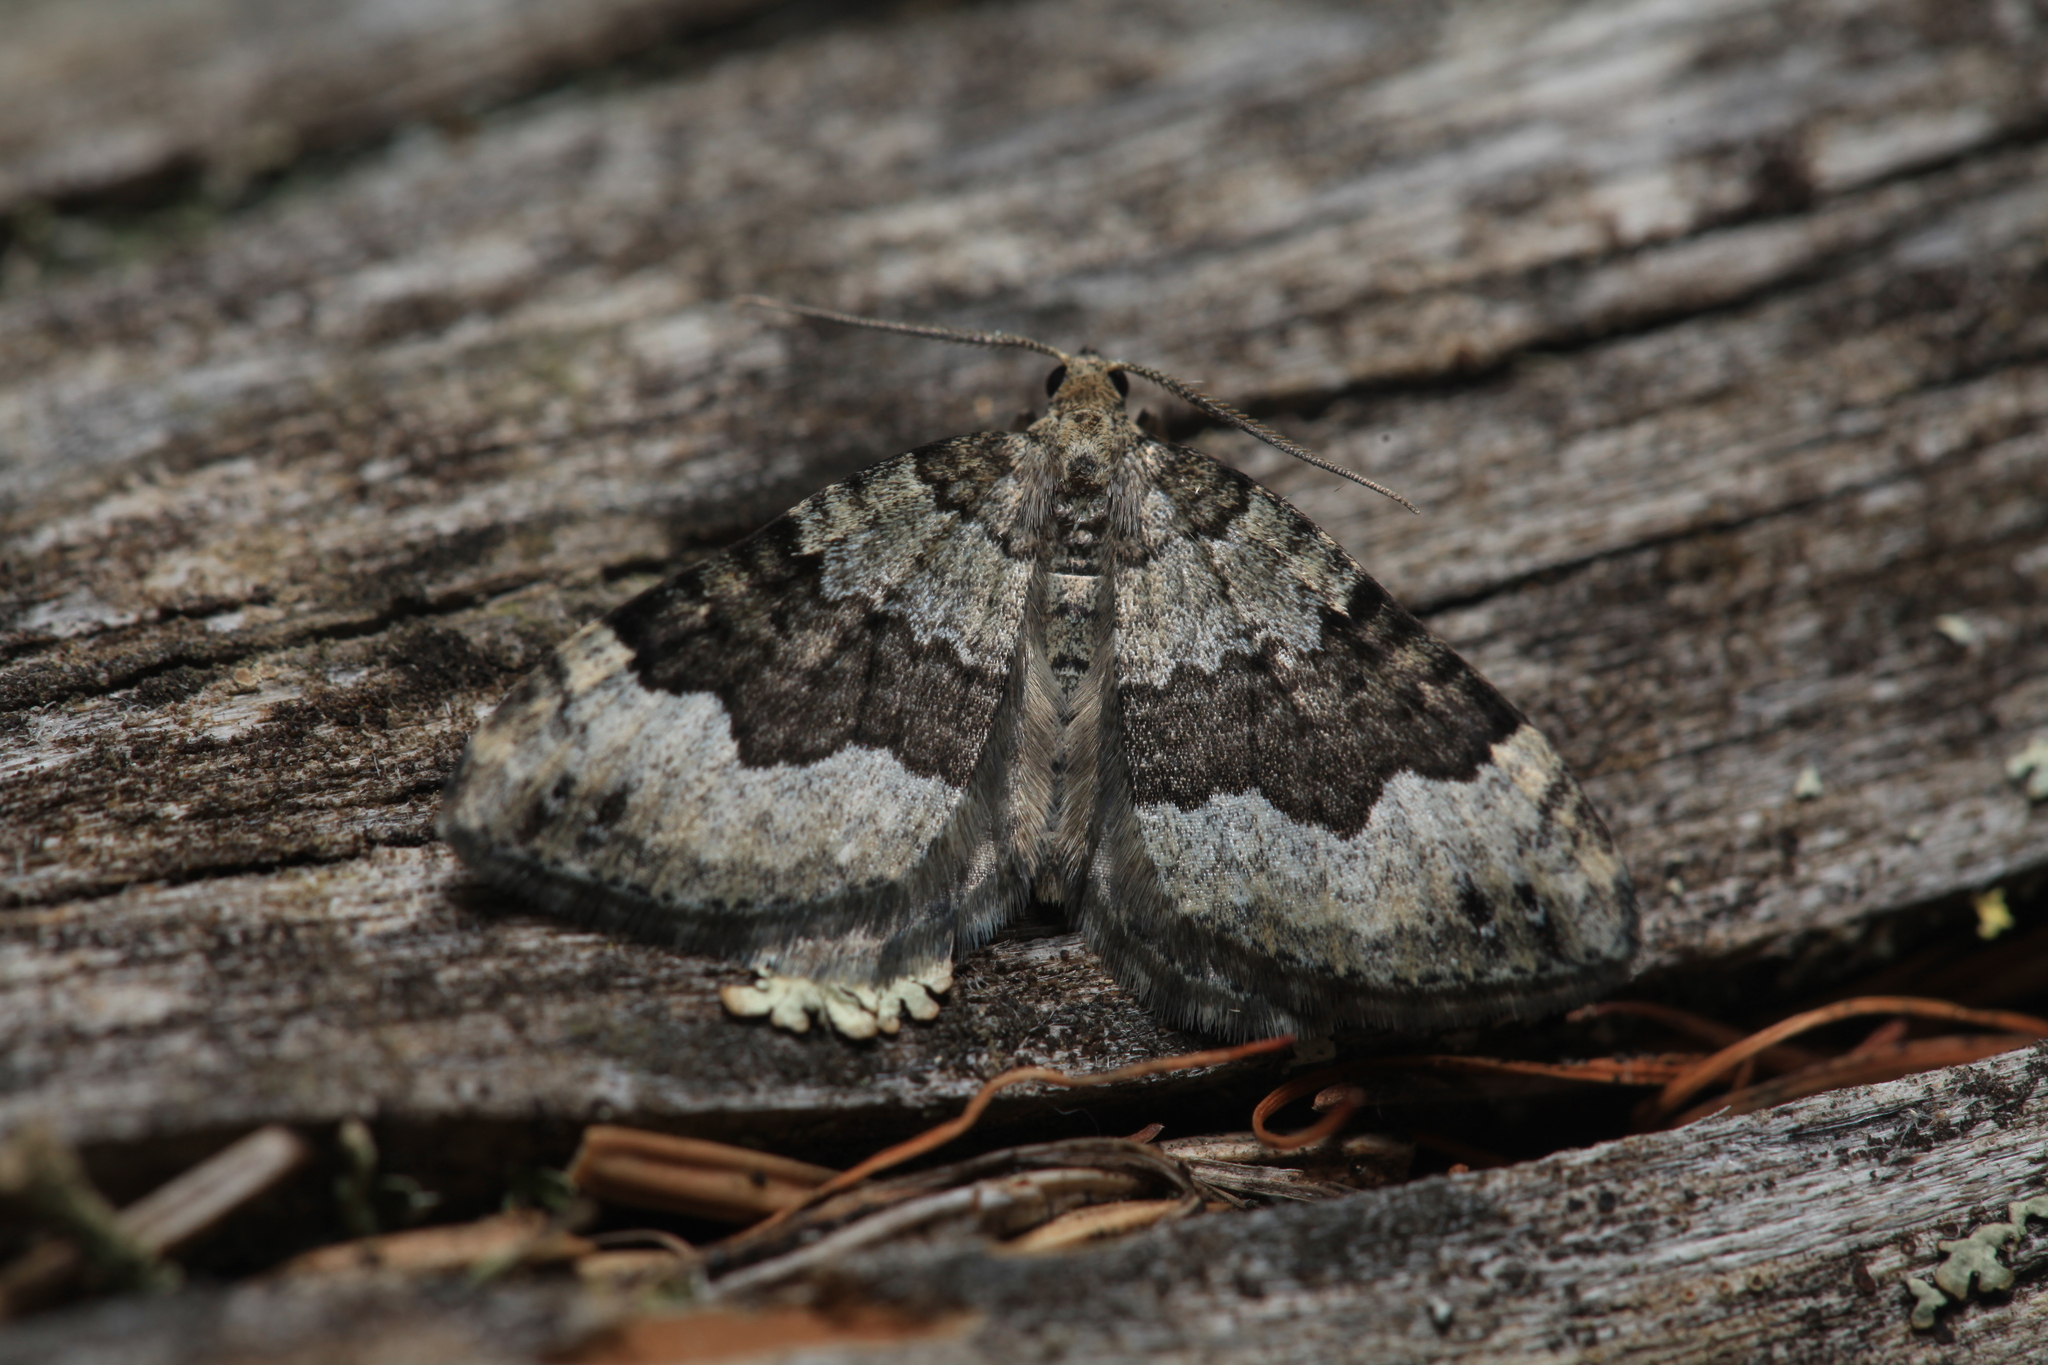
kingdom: Animalia
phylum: Arthropoda
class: Insecta
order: Lepidoptera
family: Geometridae
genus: Colostygia
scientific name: Colostygia aptata
